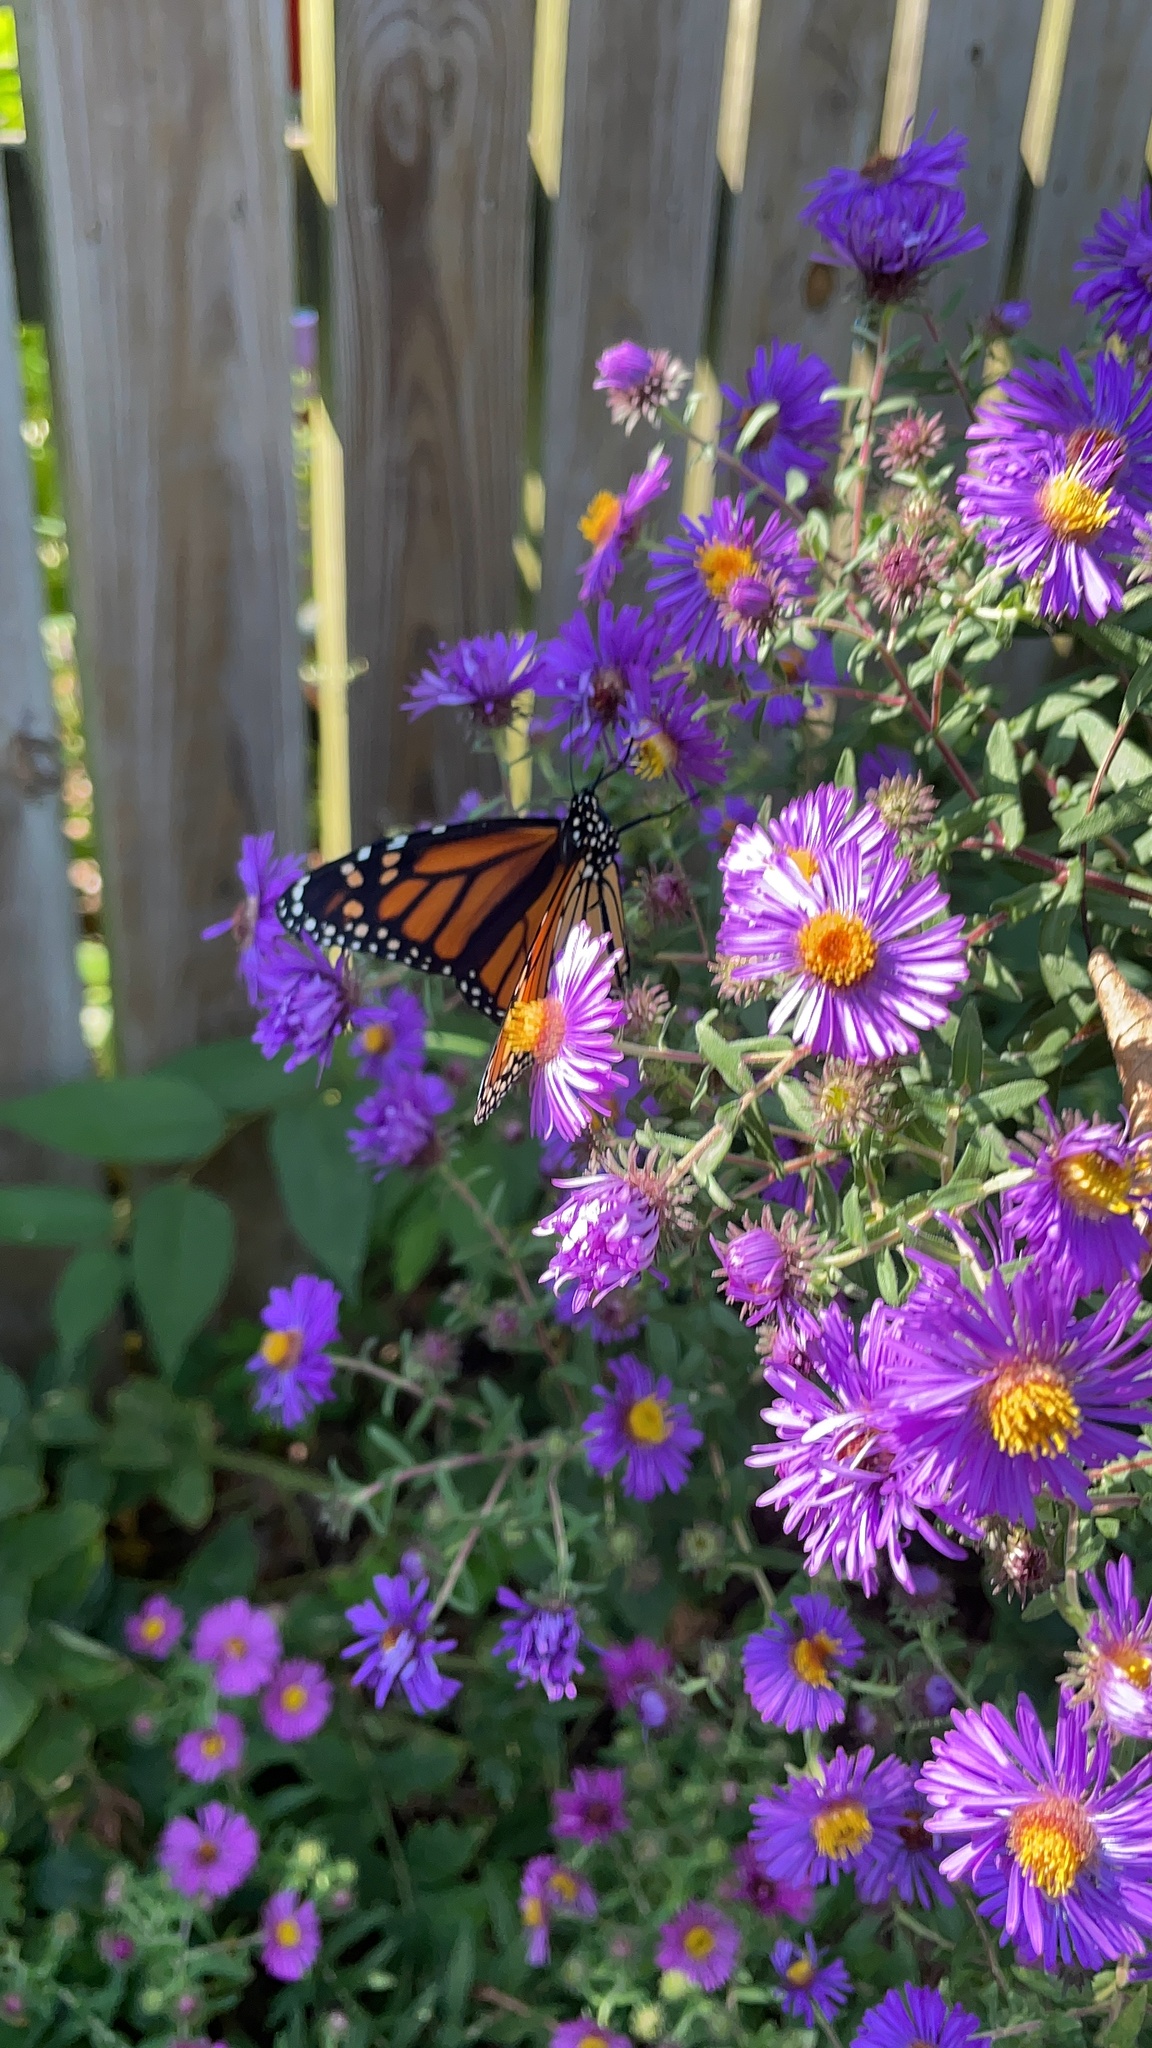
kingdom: Animalia
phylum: Arthropoda
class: Insecta
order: Lepidoptera
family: Nymphalidae
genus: Danaus
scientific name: Danaus plexippus
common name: Monarch
